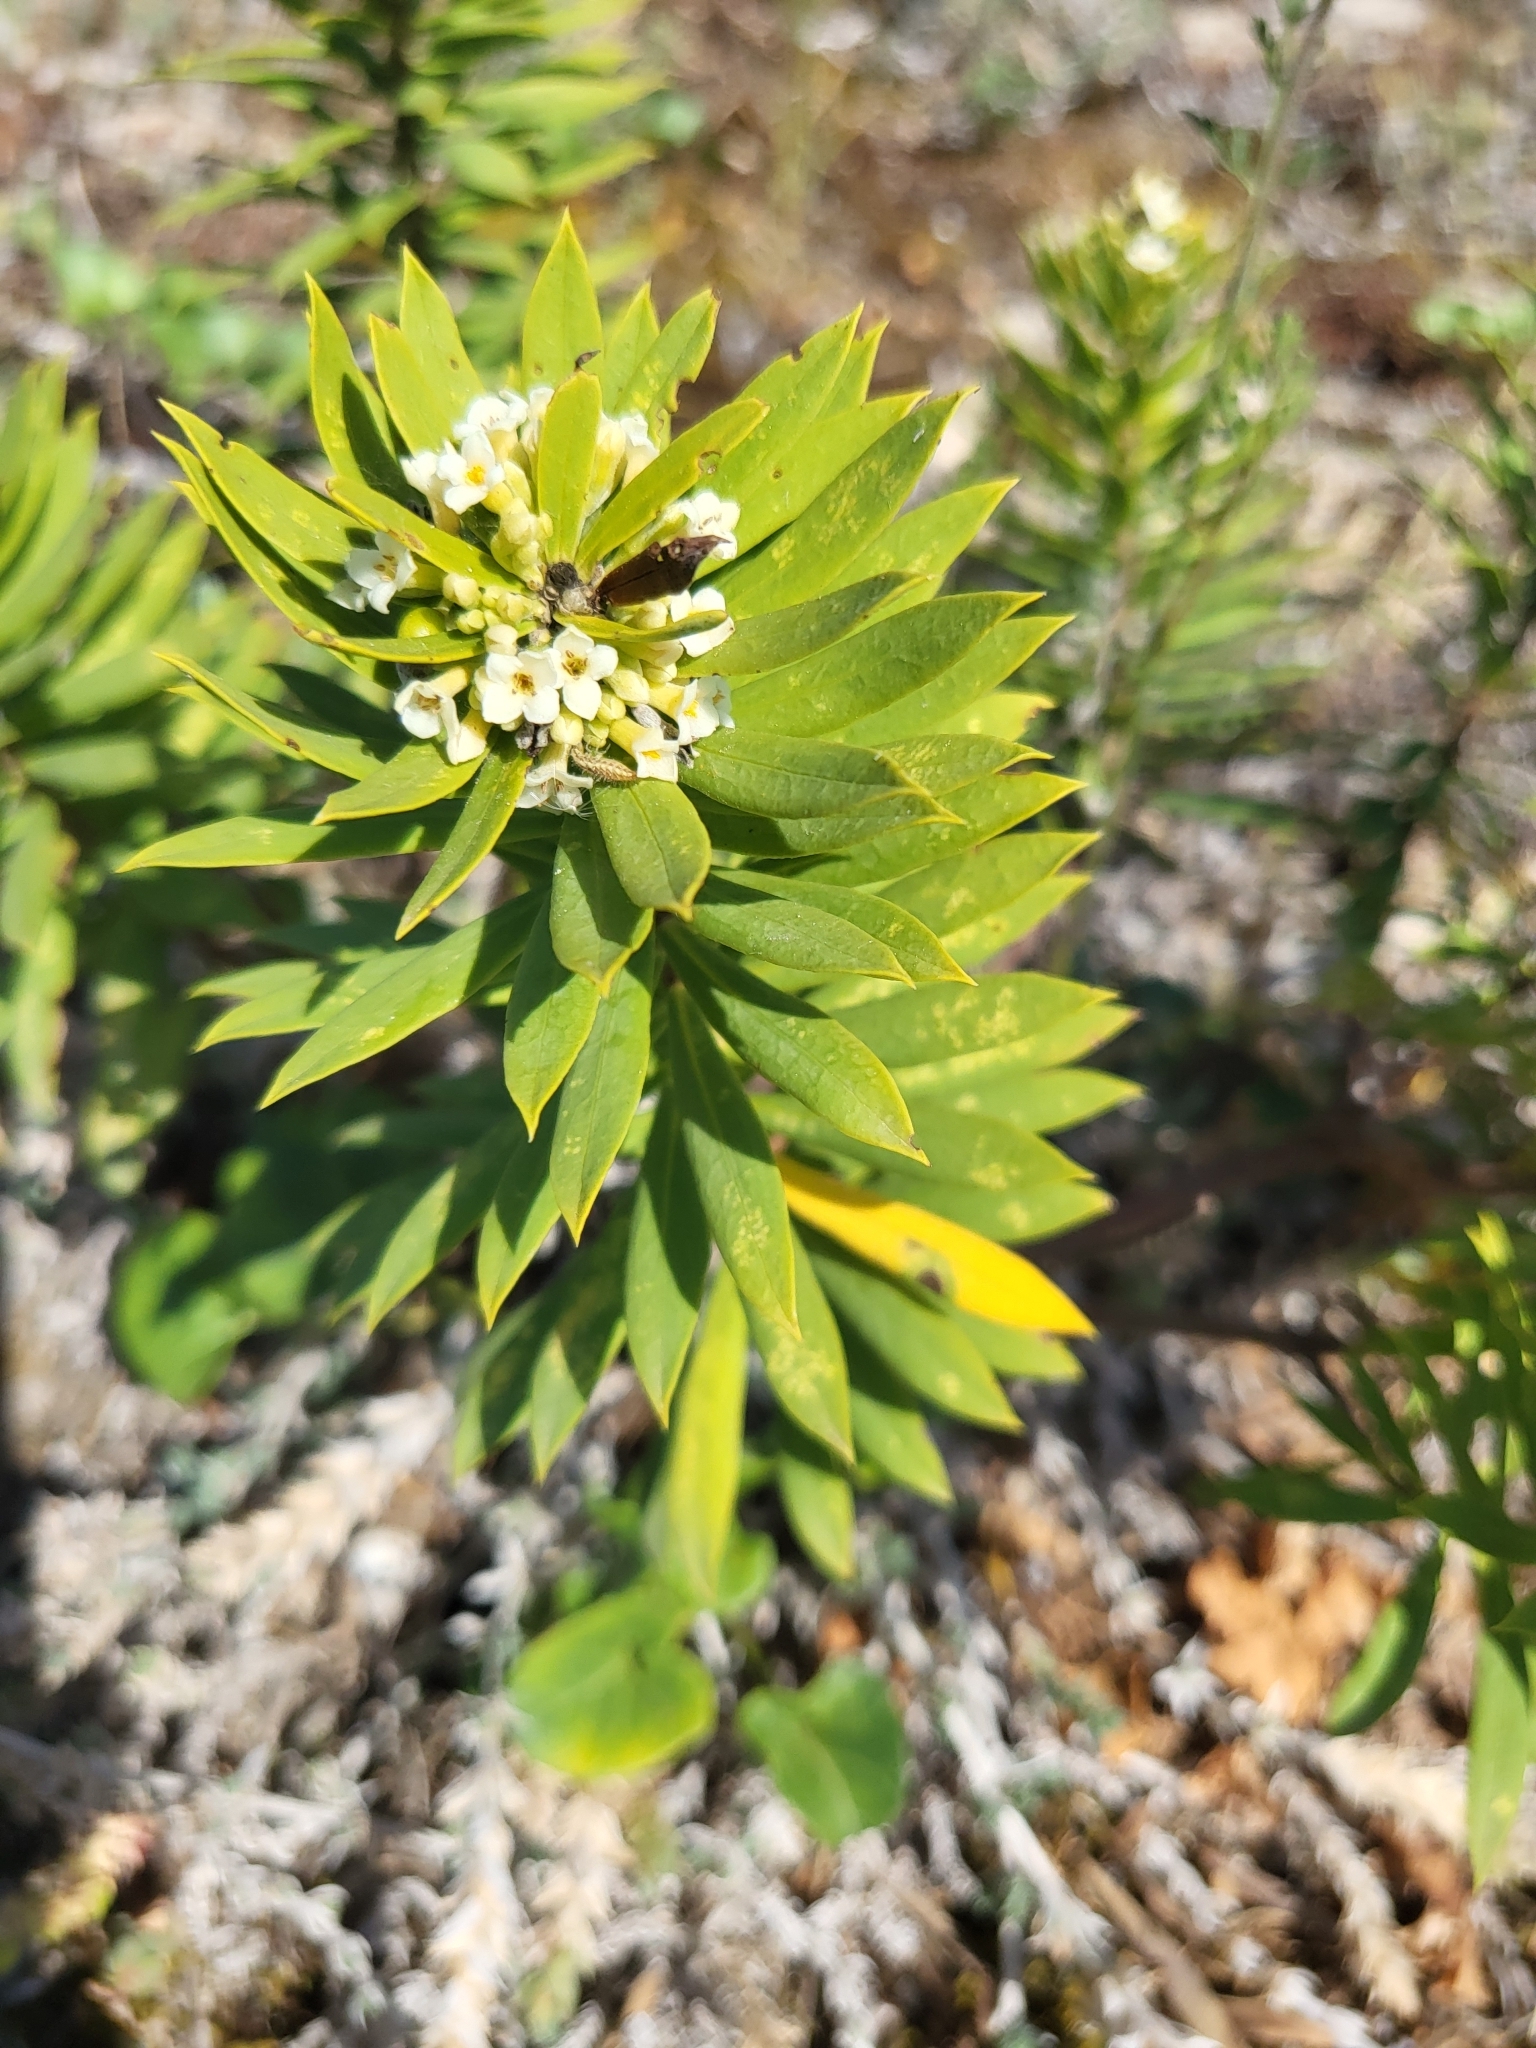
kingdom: Plantae
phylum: Tracheophyta
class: Magnoliopsida
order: Malvales
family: Thymelaeaceae
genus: Daphne
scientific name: Daphne gnidium
